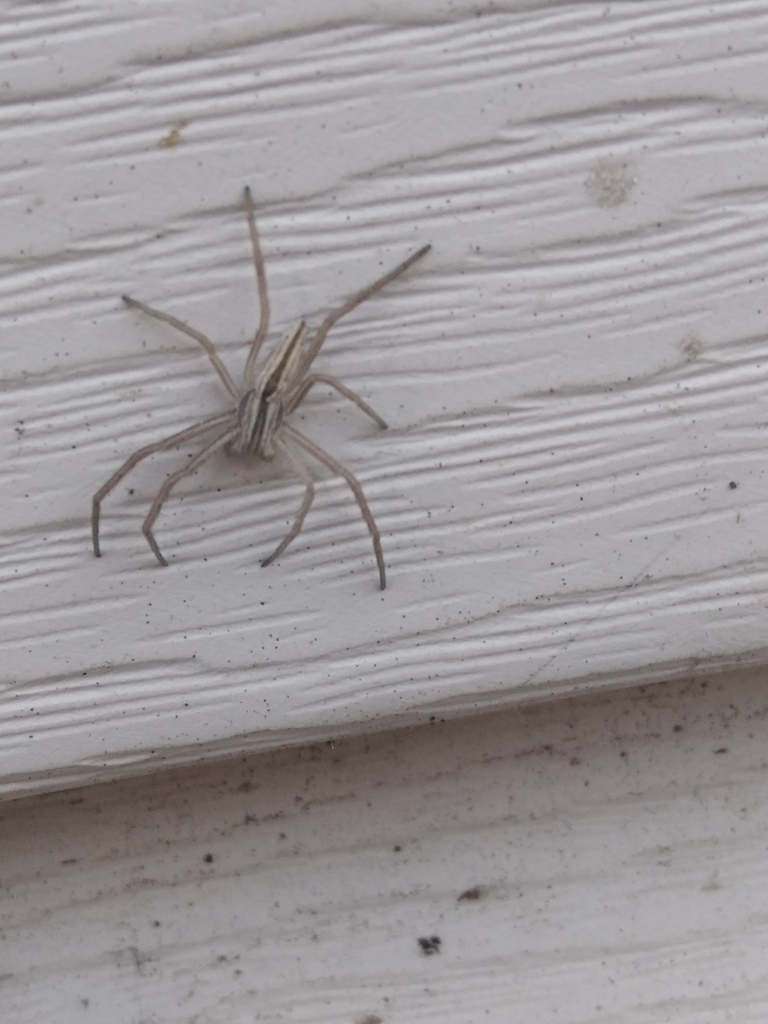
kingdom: Animalia
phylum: Arthropoda
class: Arachnida
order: Araneae
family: Philodromidae
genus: Tibellus
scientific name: Tibellus oblongus
